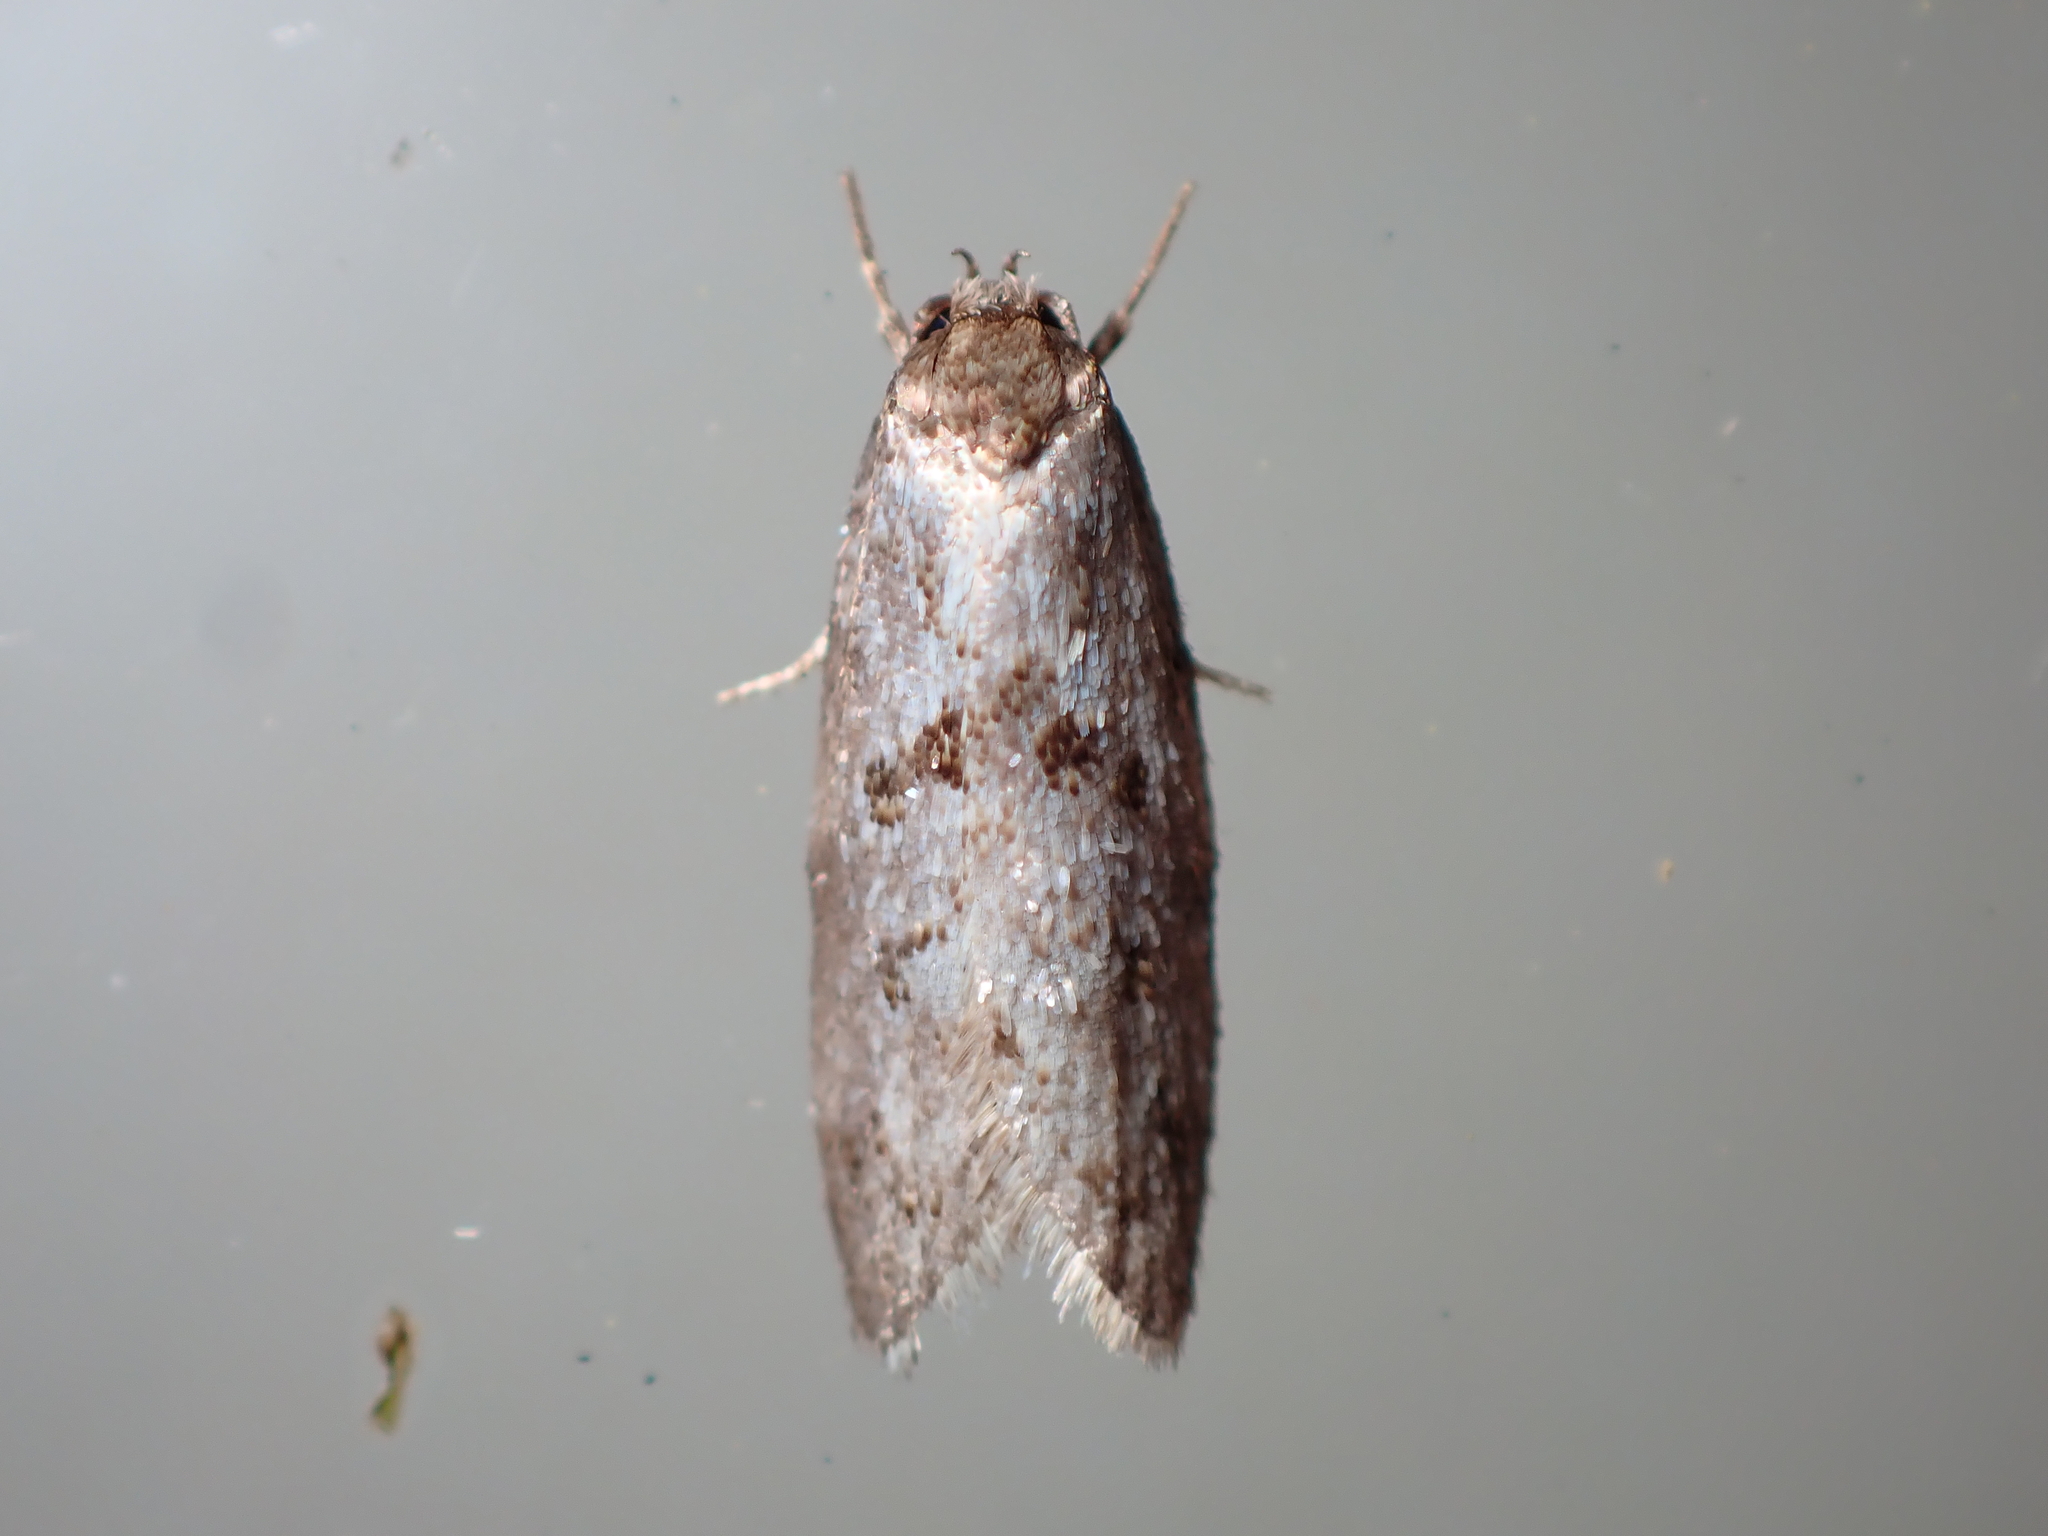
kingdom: Animalia
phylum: Arthropoda
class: Insecta
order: Lepidoptera
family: Oecophoridae
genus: Tingena
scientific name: Tingena clarkei
